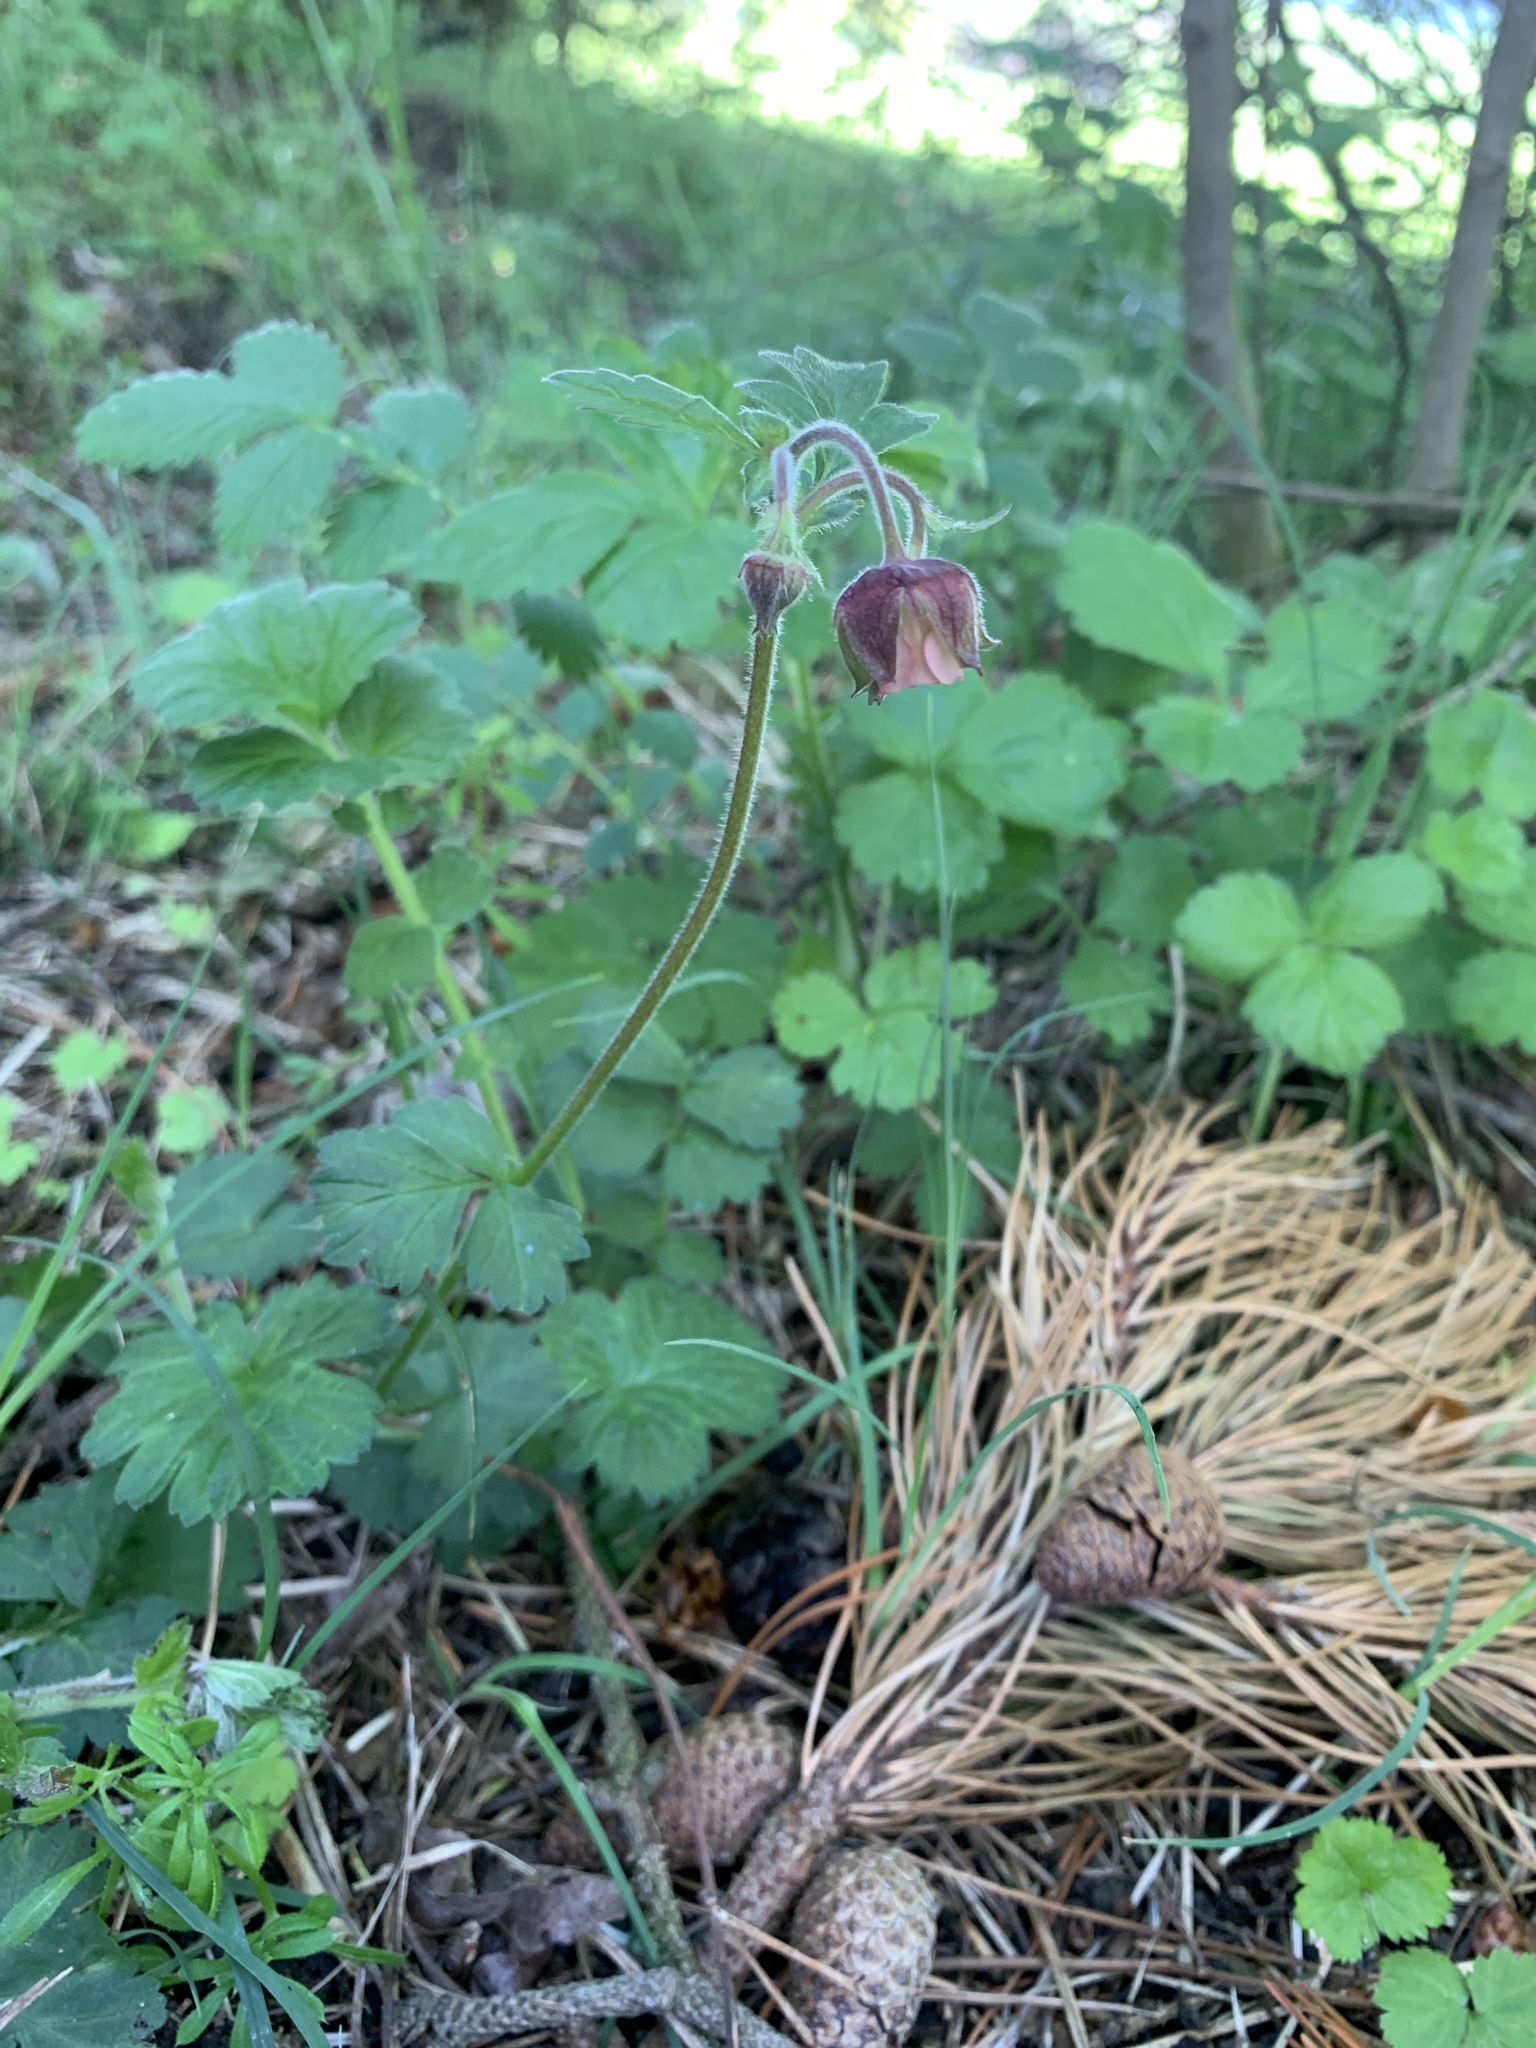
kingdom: Plantae
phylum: Tracheophyta
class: Magnoliopsida
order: Rosales
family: Rosaceae
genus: Geum
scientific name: Geum rivale
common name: Water avens
